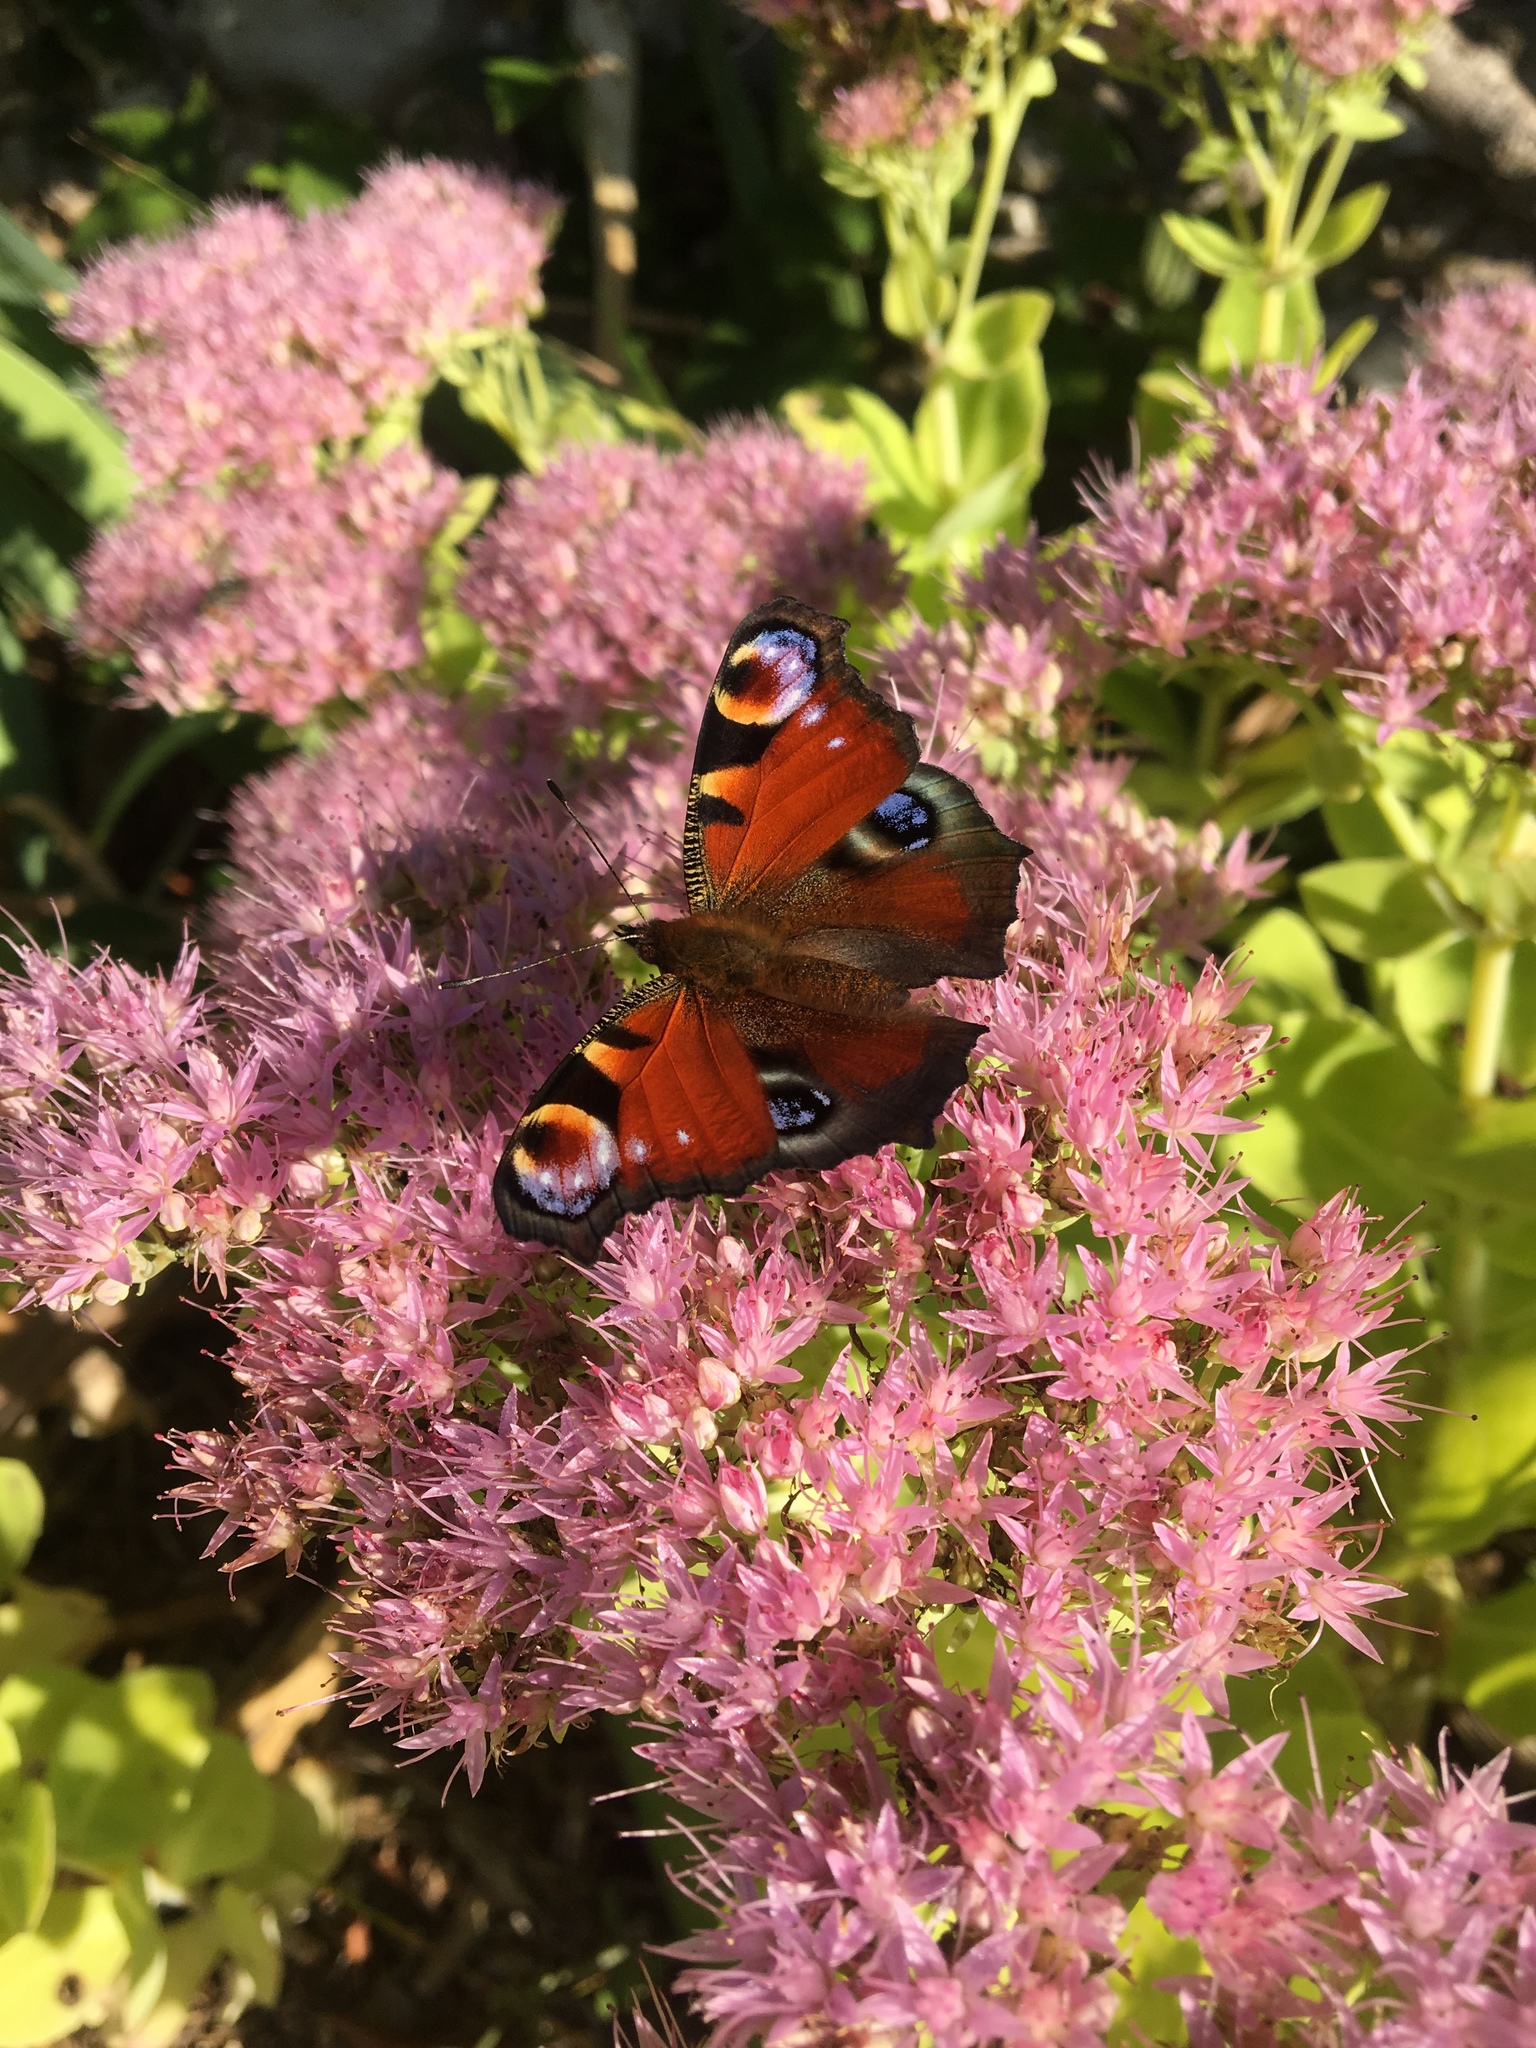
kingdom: Animalia
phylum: Arthropoda
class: Insecta
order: Lepidoptera
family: Nymphalidae
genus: Aglais
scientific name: Aglais io
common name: Peacock
